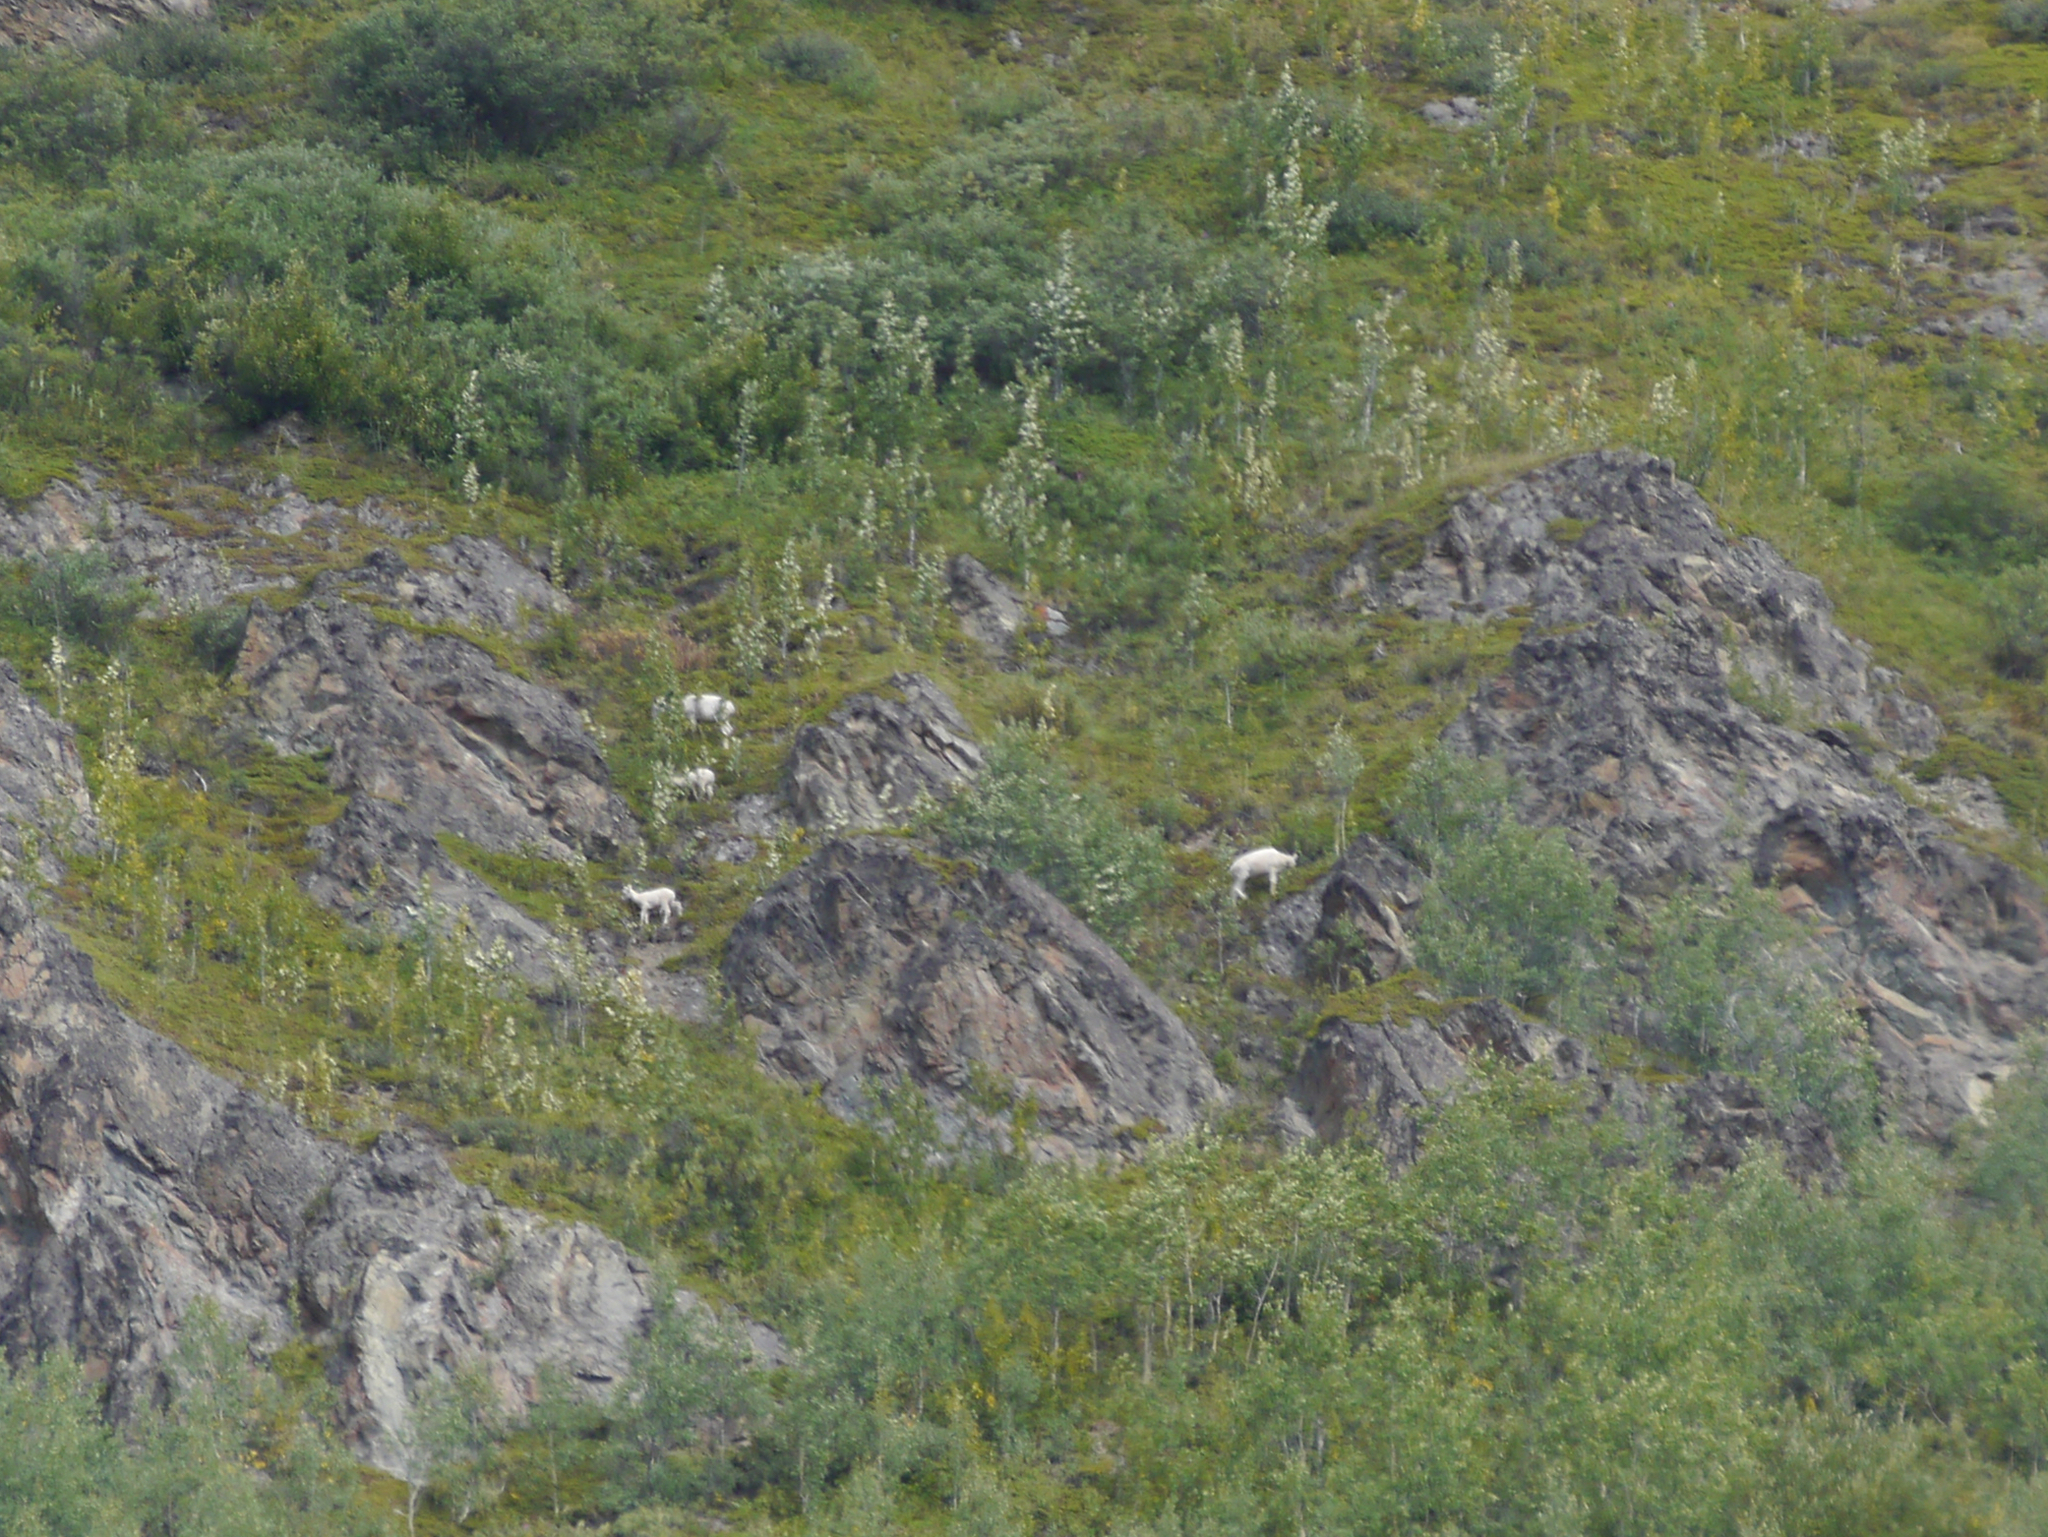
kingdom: Animalia
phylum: Chordata
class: Mammalia
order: Artiodactyla
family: Bovidae
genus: Ovis
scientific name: Ovis dalli
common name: Dall's sheep
